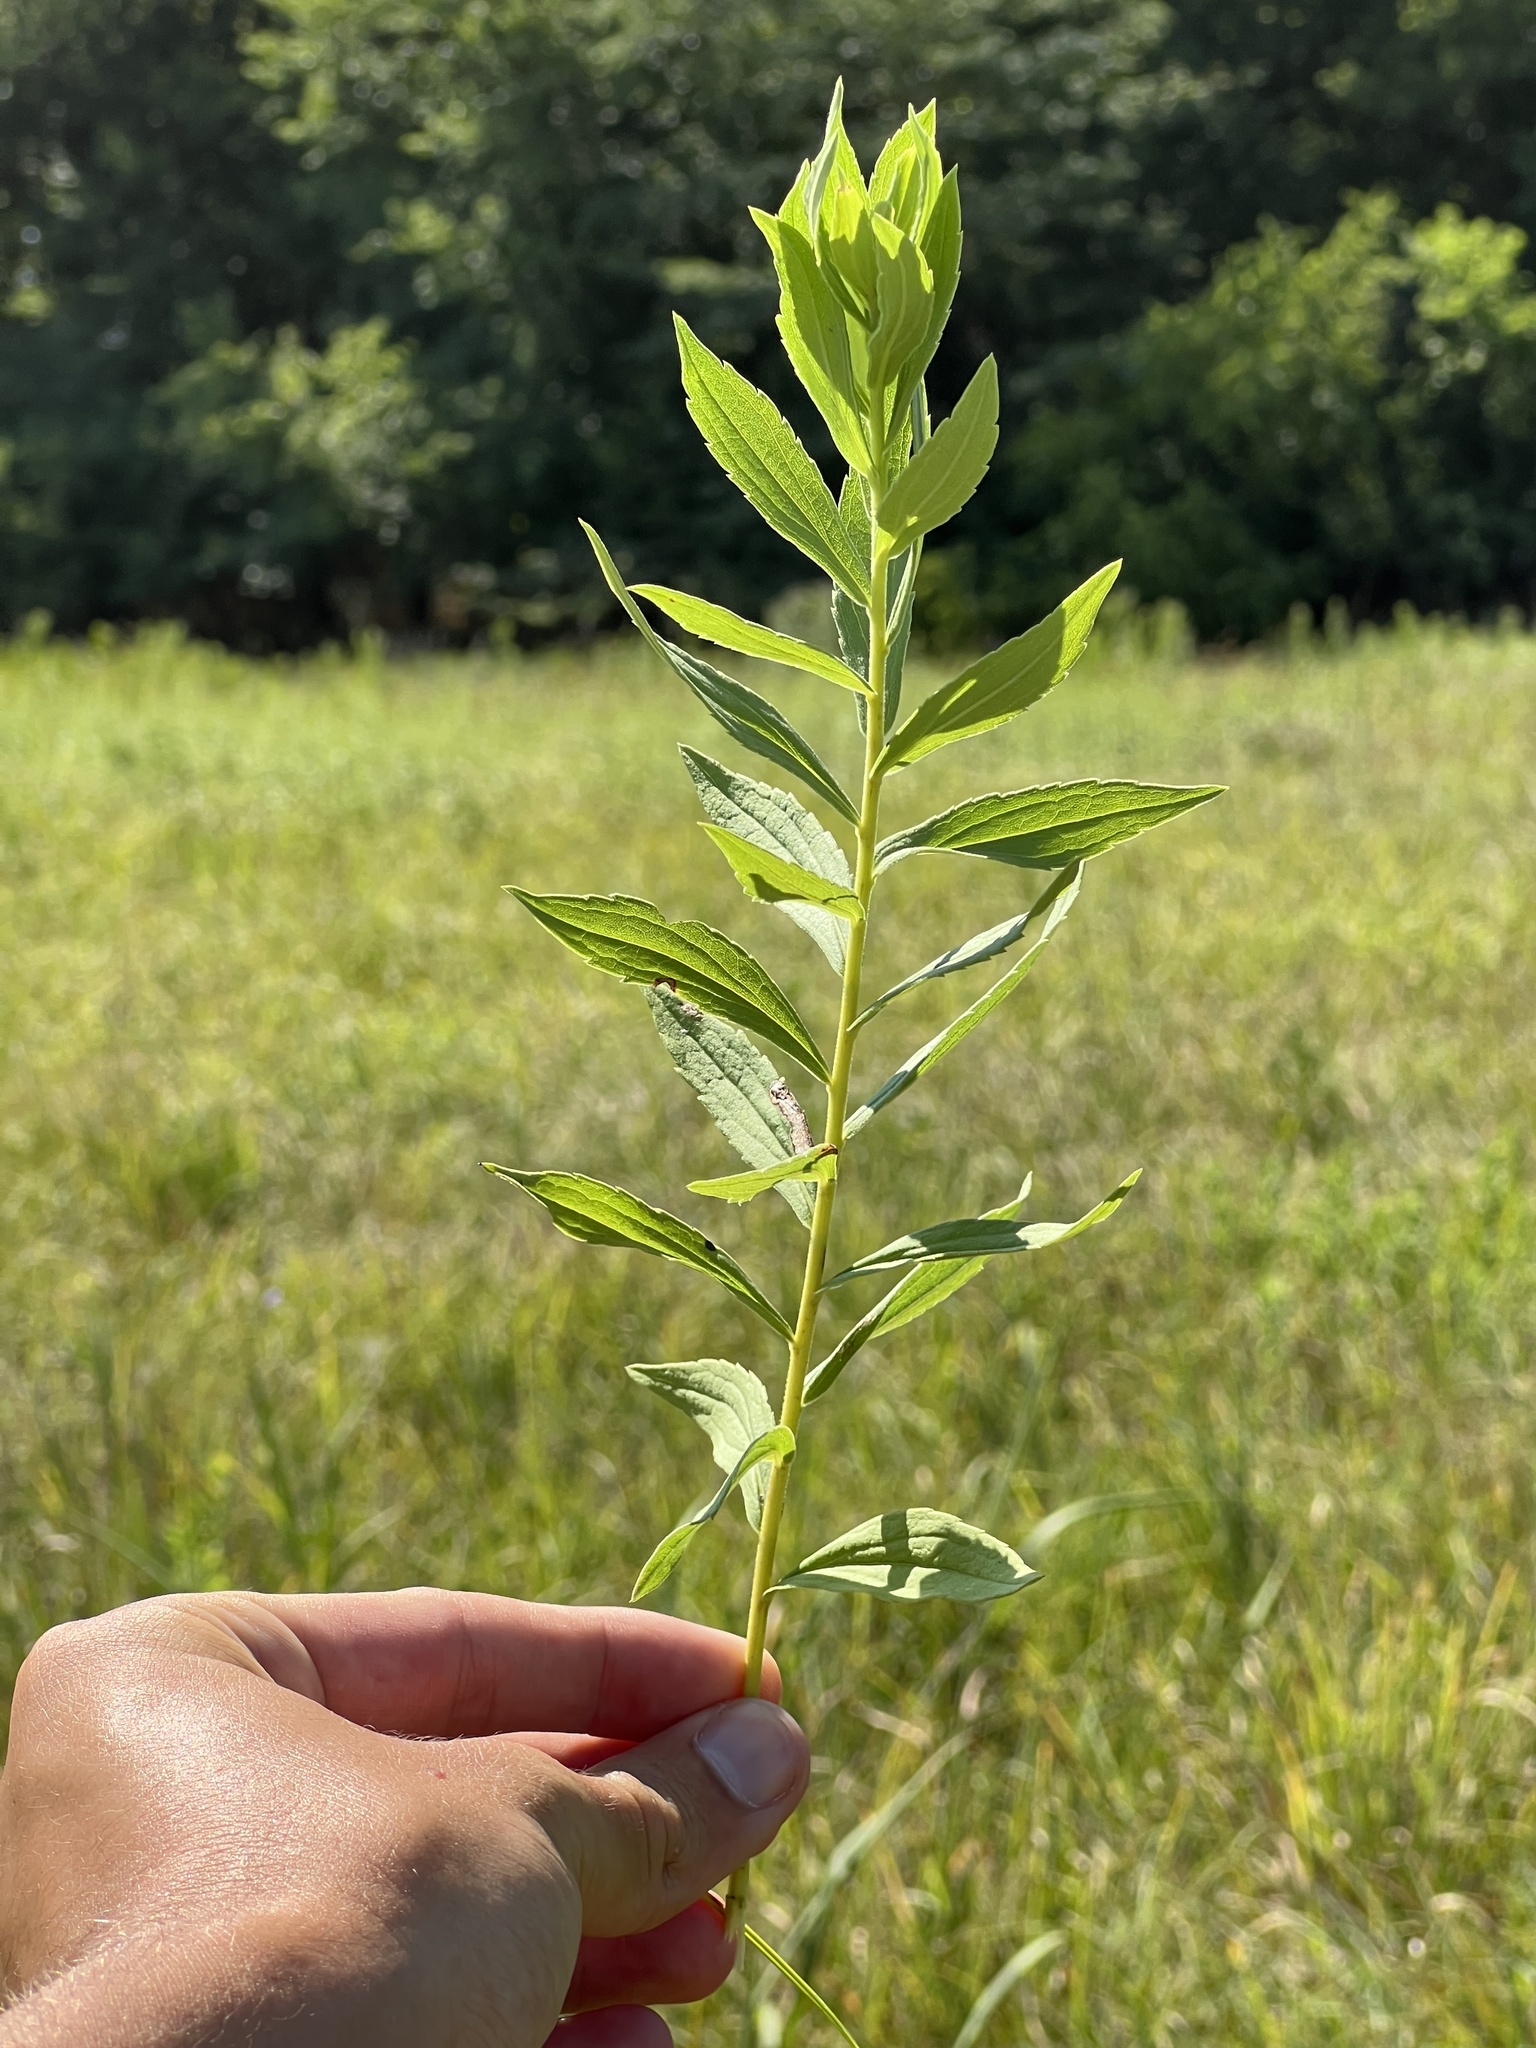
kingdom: Plantae
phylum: Tracheophyta
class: Magnoliopsida
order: Asterales
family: Asteraceae
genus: Solidago
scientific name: Solidago altissima
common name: Late goldenrod
